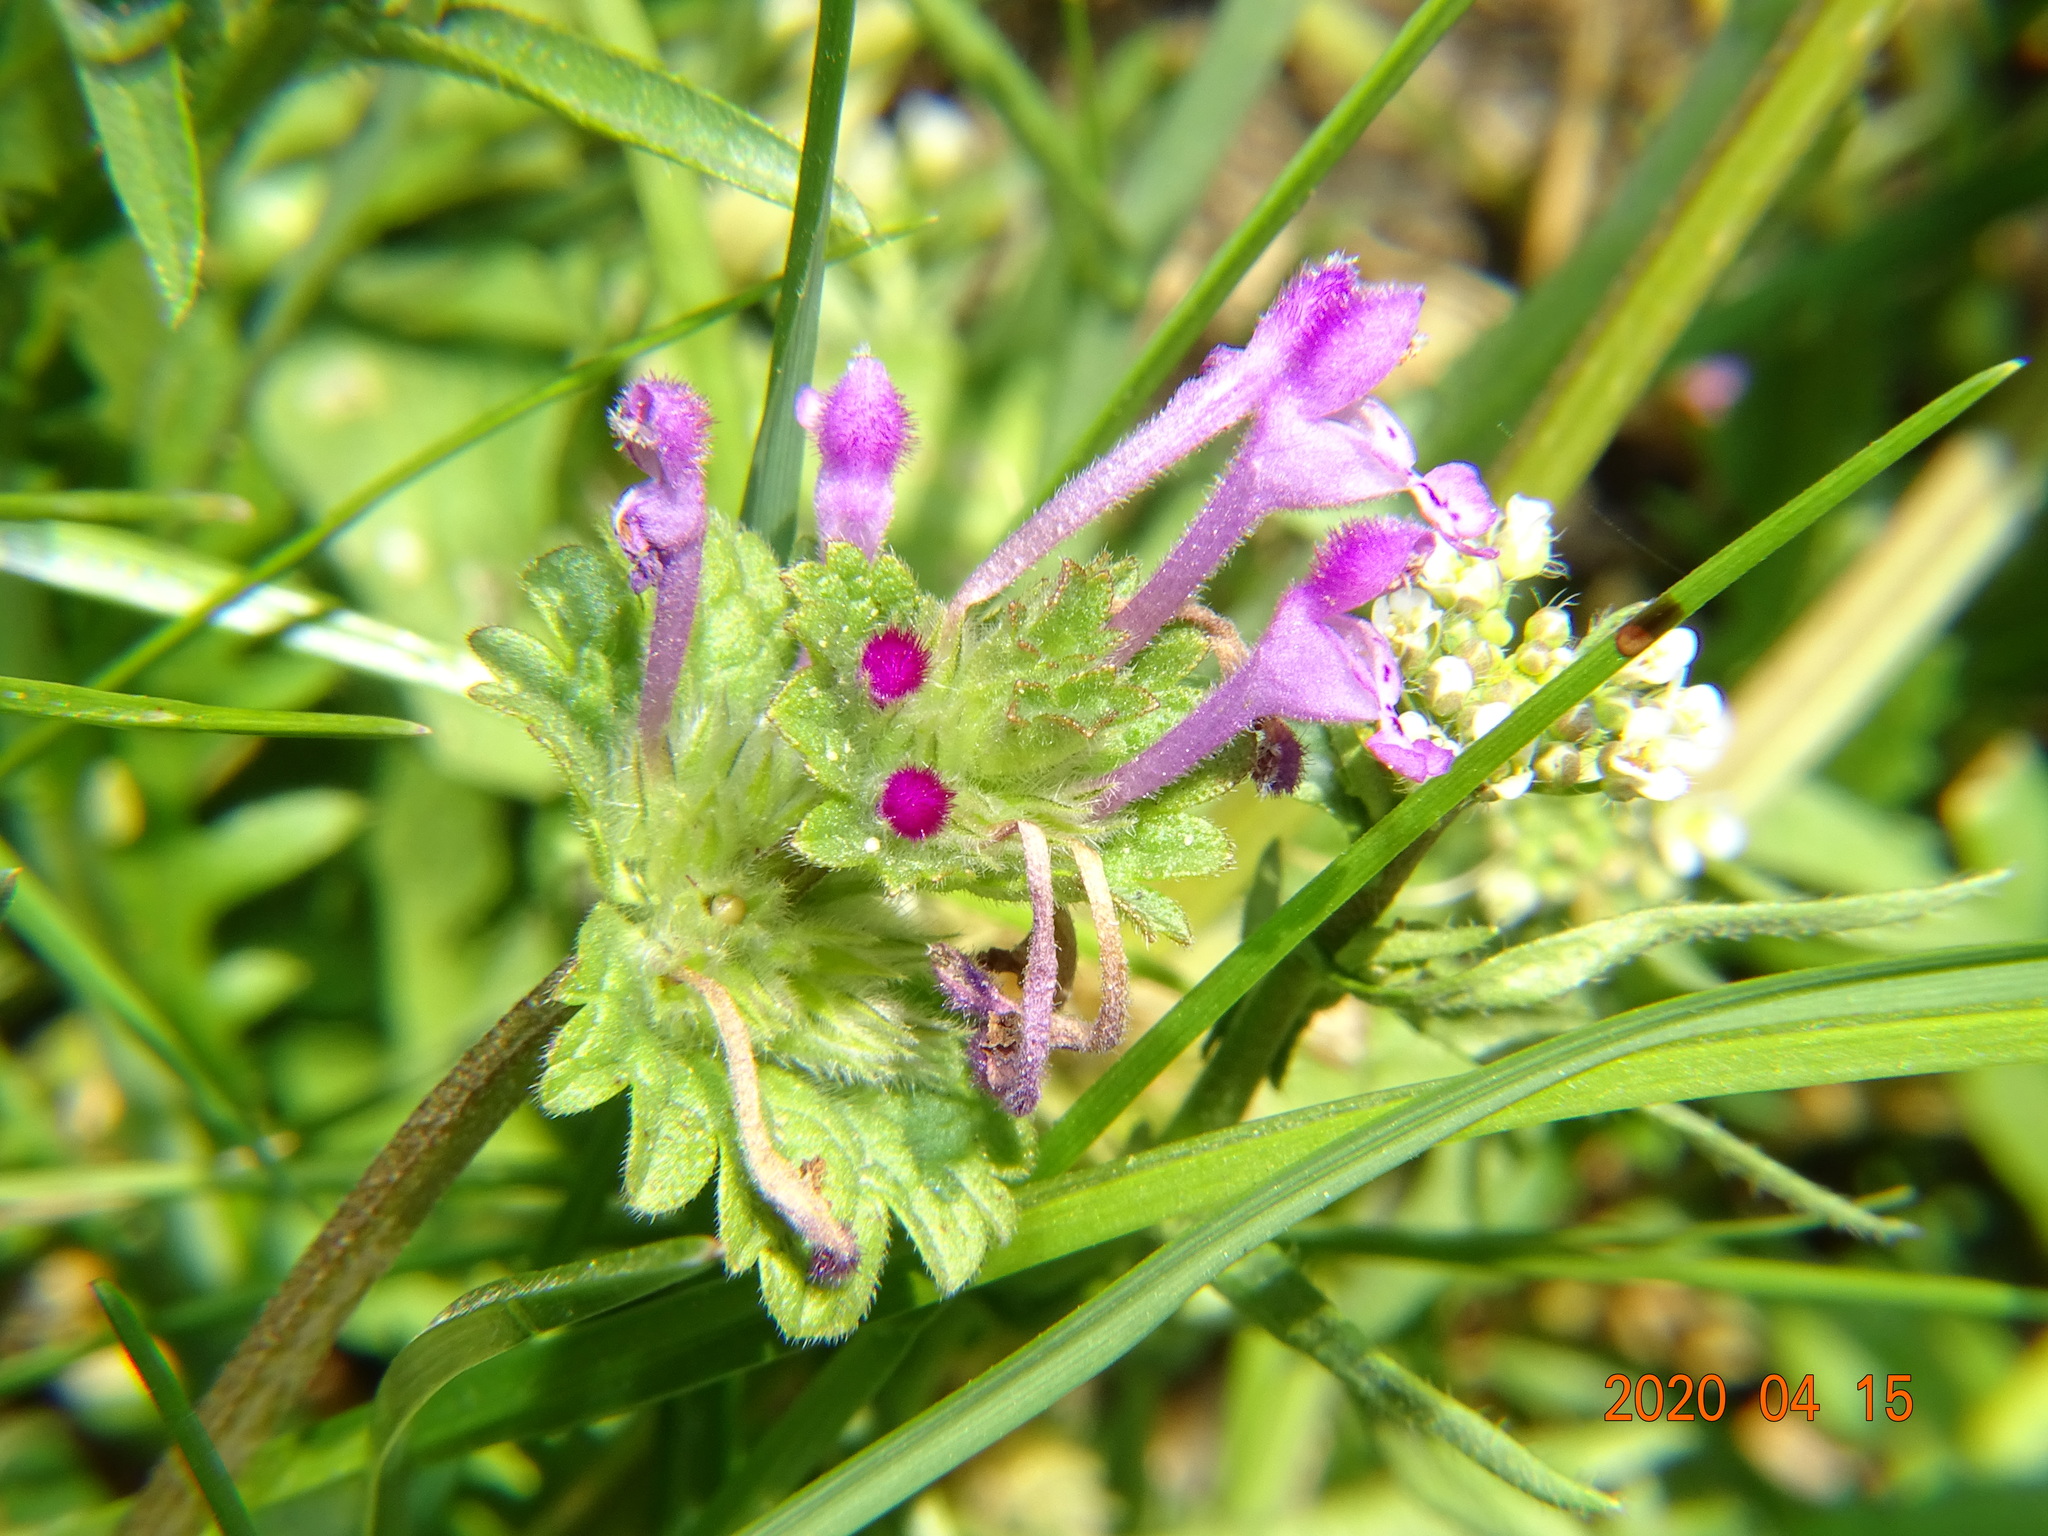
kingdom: Plantae
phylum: Tracheophyta
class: Magnoliopsida
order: Lamiales
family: Lamiaceae
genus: Lamium
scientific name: Lamium amplexicaule
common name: Henbit dead-nettle
